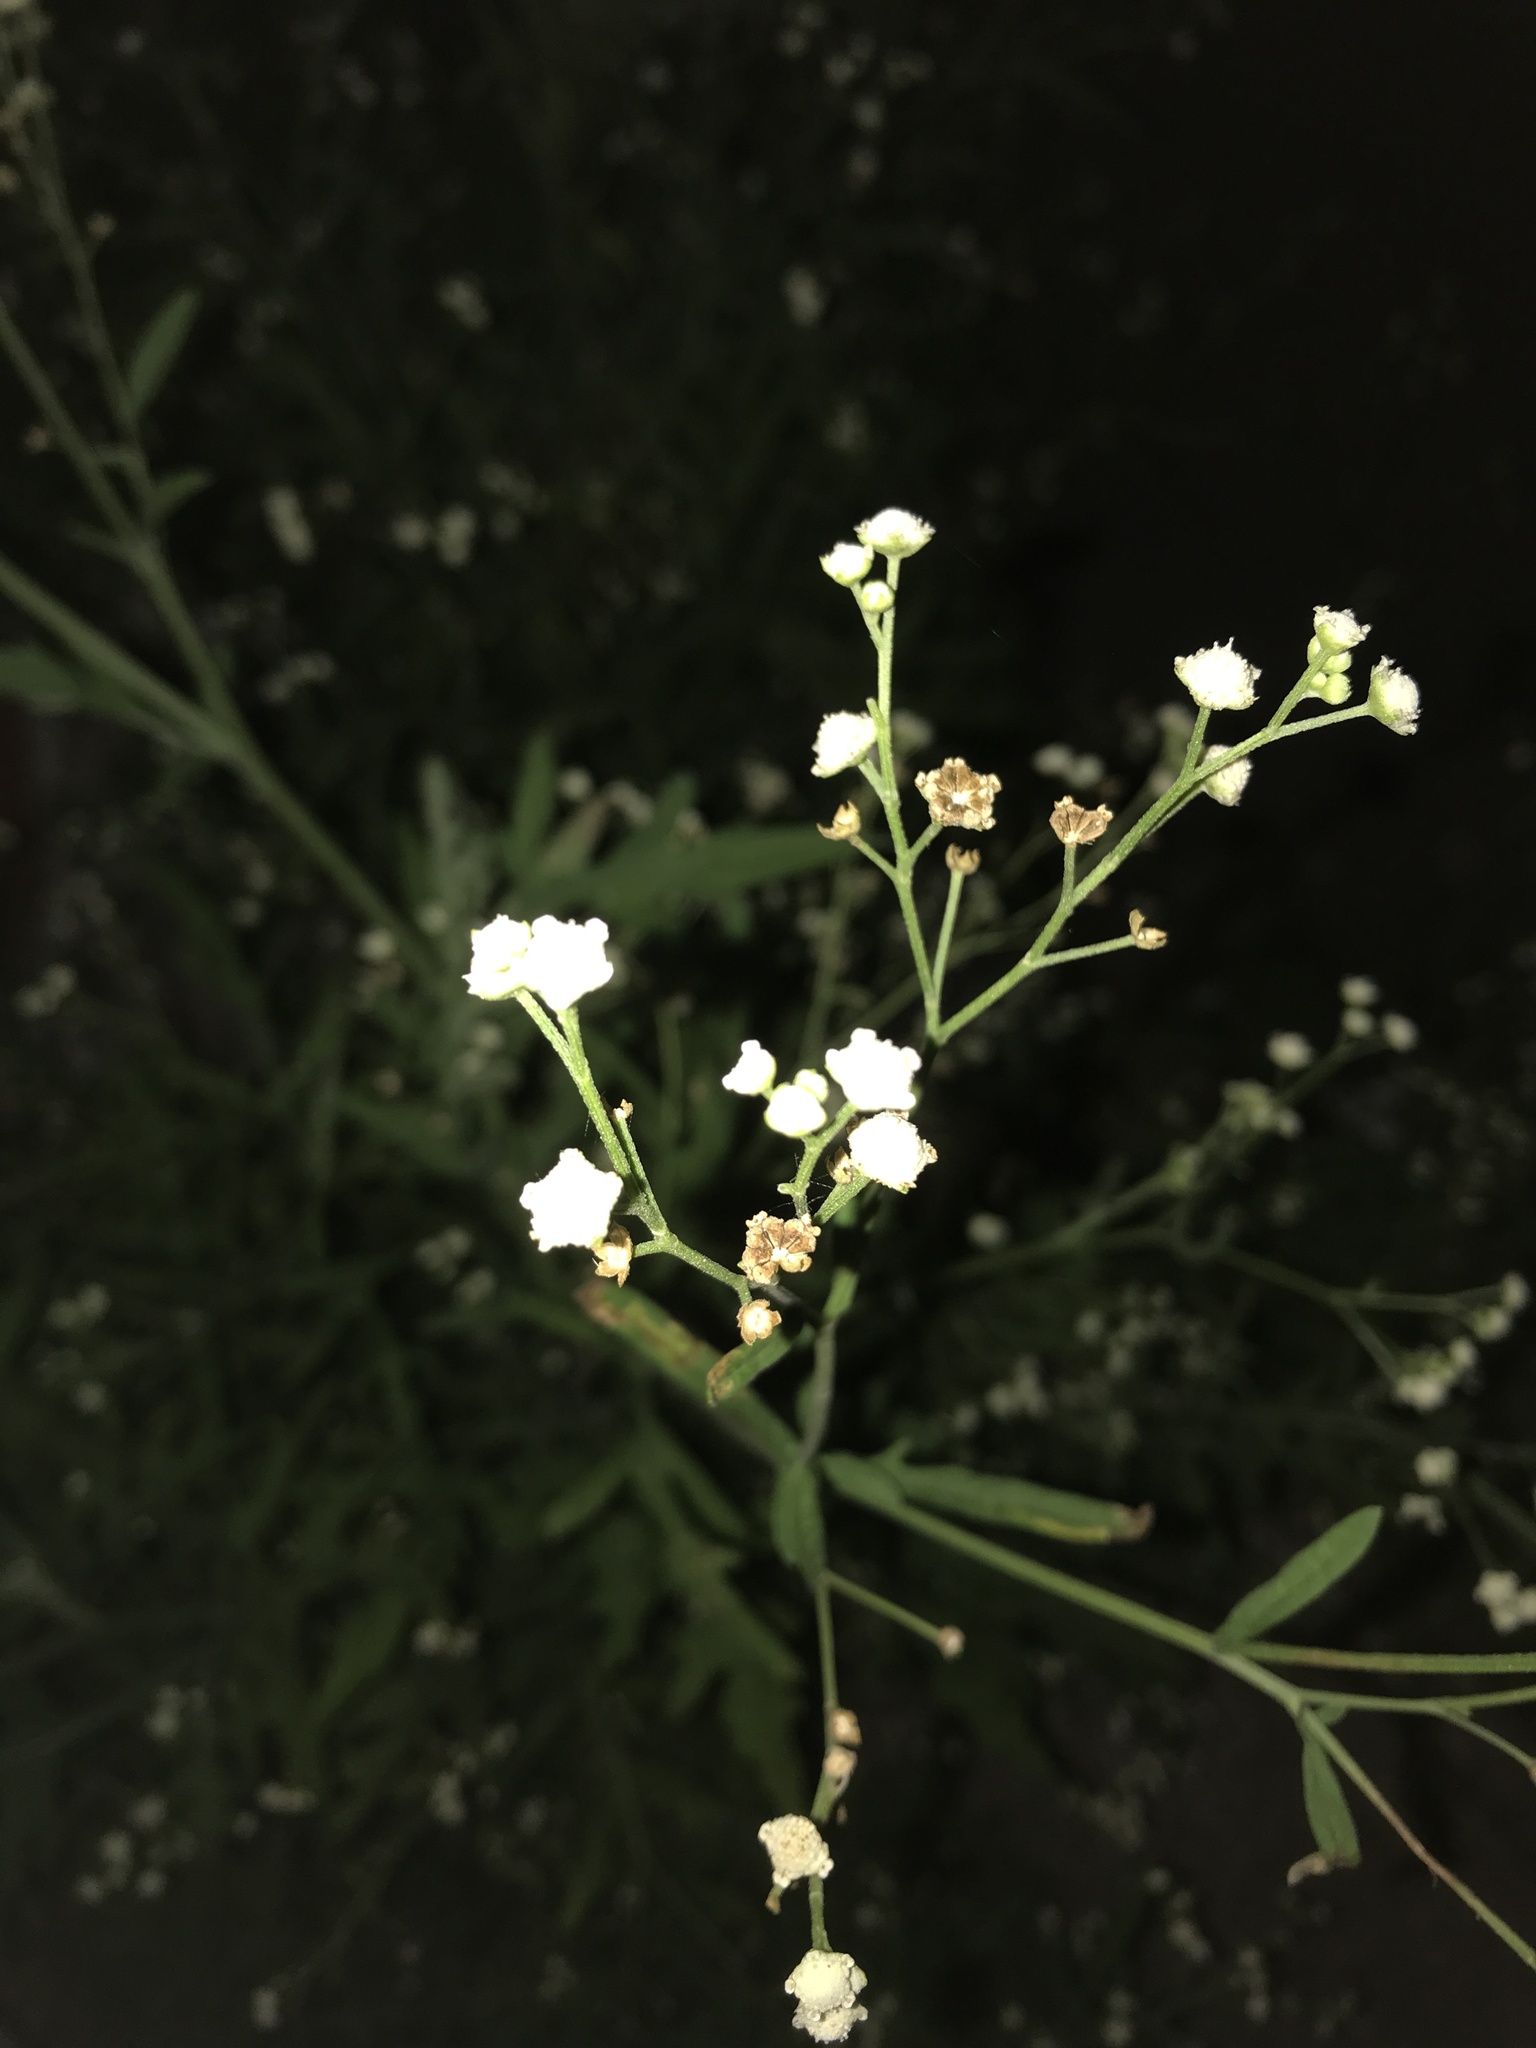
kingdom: Plantae
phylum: Tracheophyta
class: Magnoliopsida
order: Asterales
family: Asteraceae
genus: Parthenium
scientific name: Parthenium hysterophorus
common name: Santa maria feverfew
